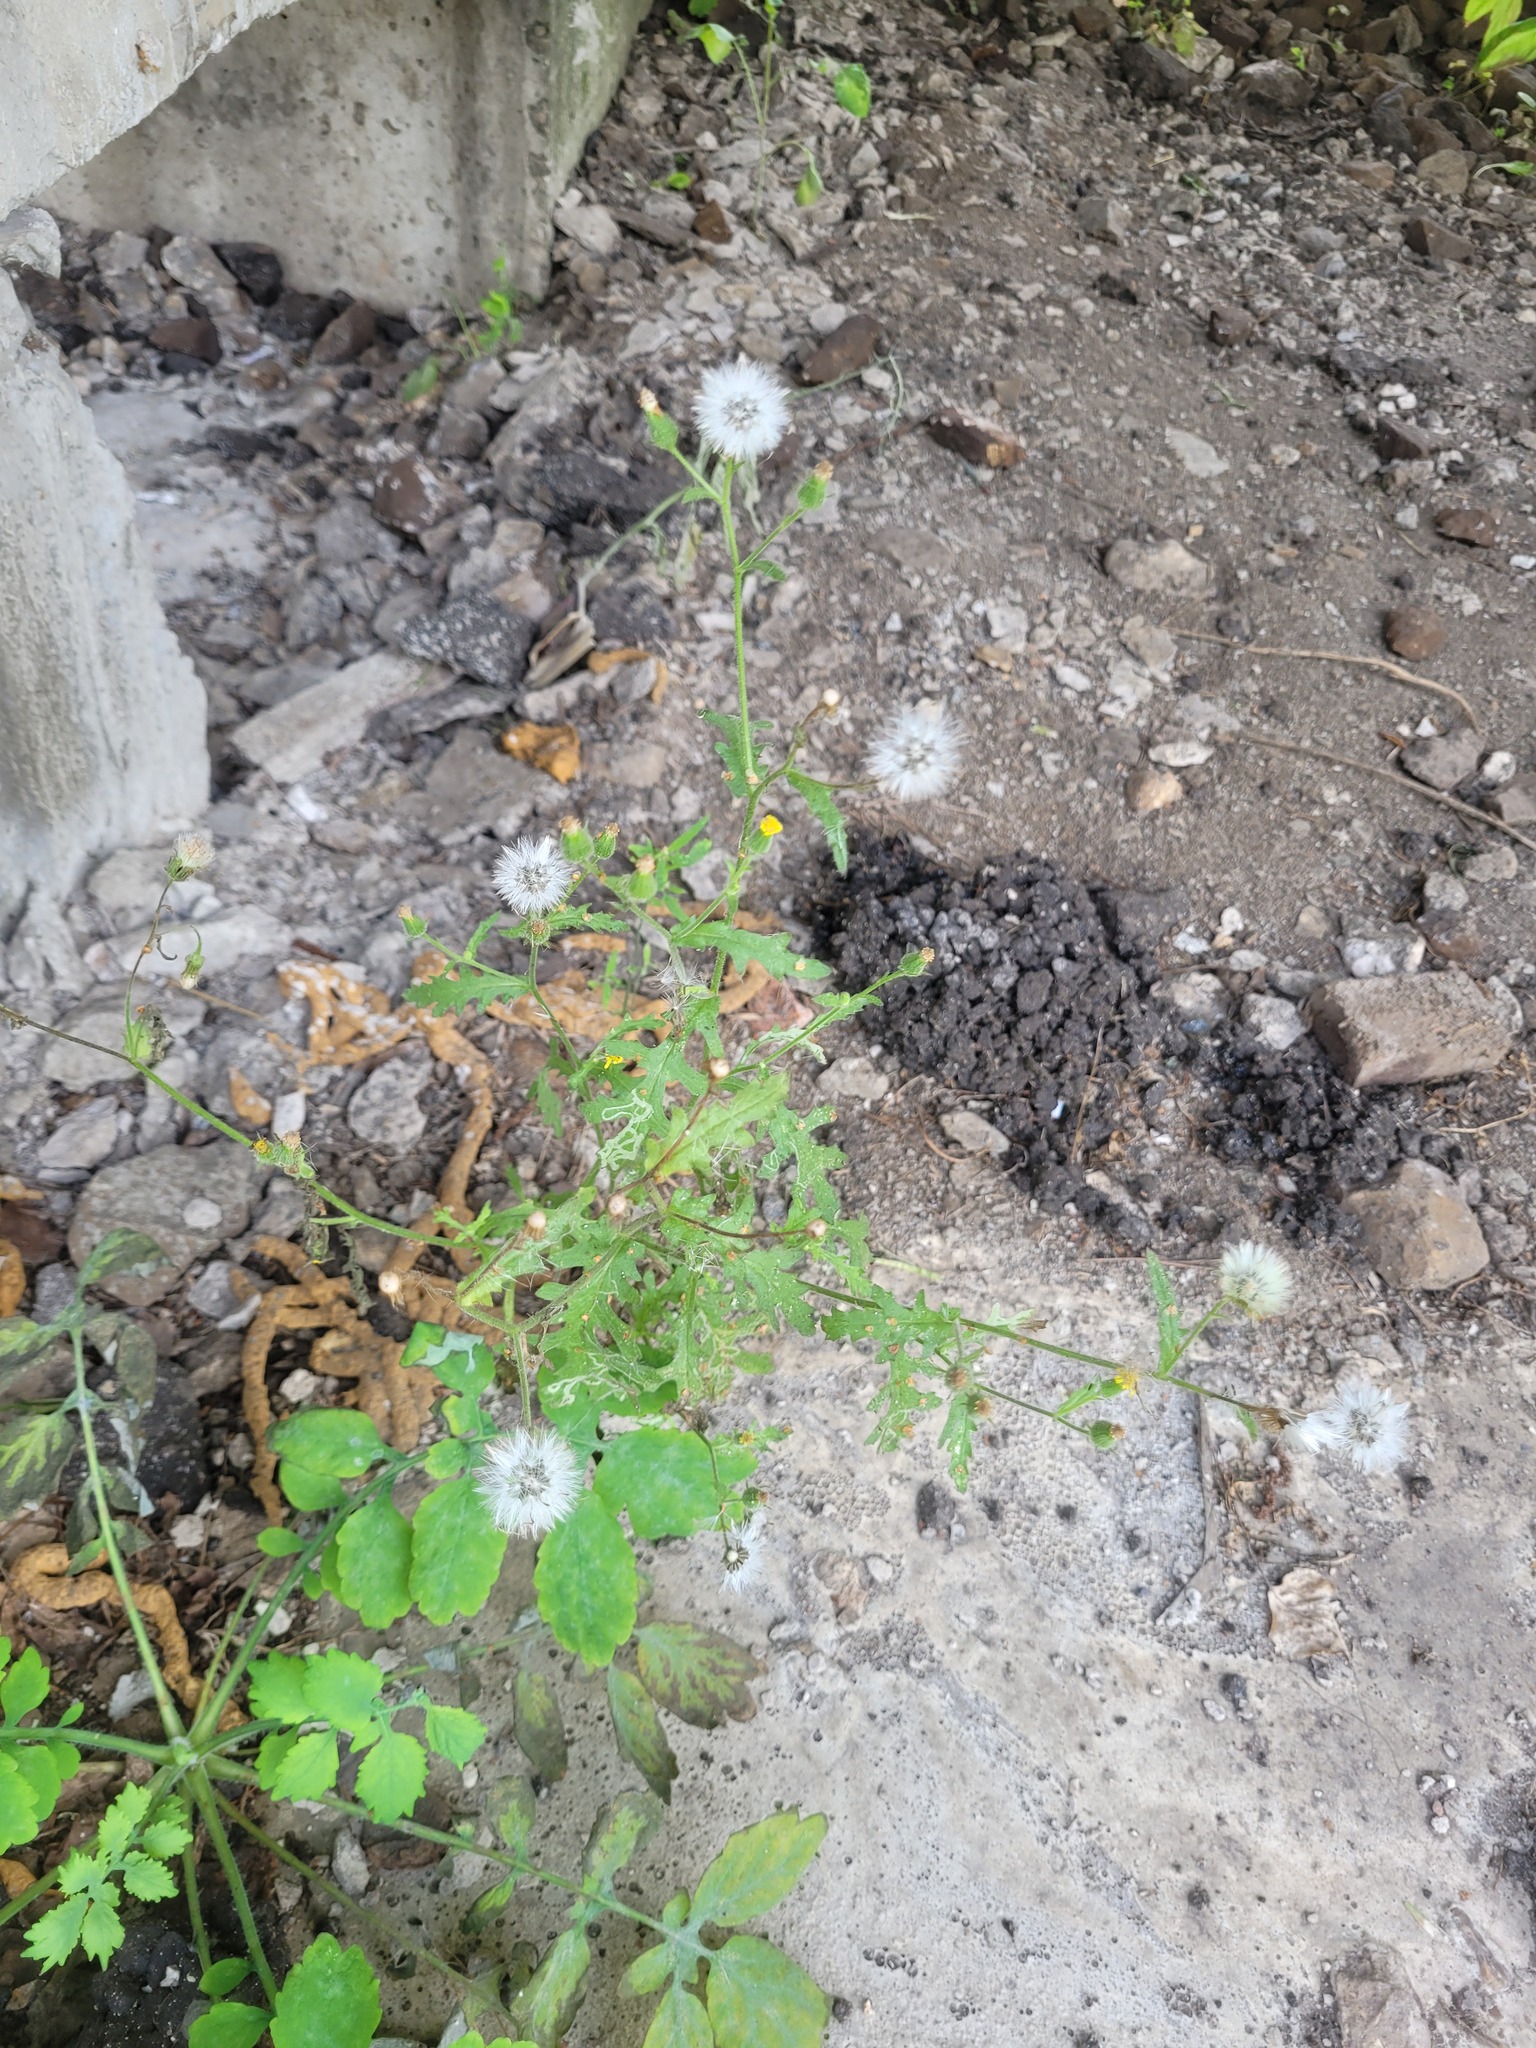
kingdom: Plantae
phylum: Tracheophyta
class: Magnoliopsida
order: Asterales
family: Asteraceae
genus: Senecio
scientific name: Senecio viscosus
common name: Sticky groundsel
